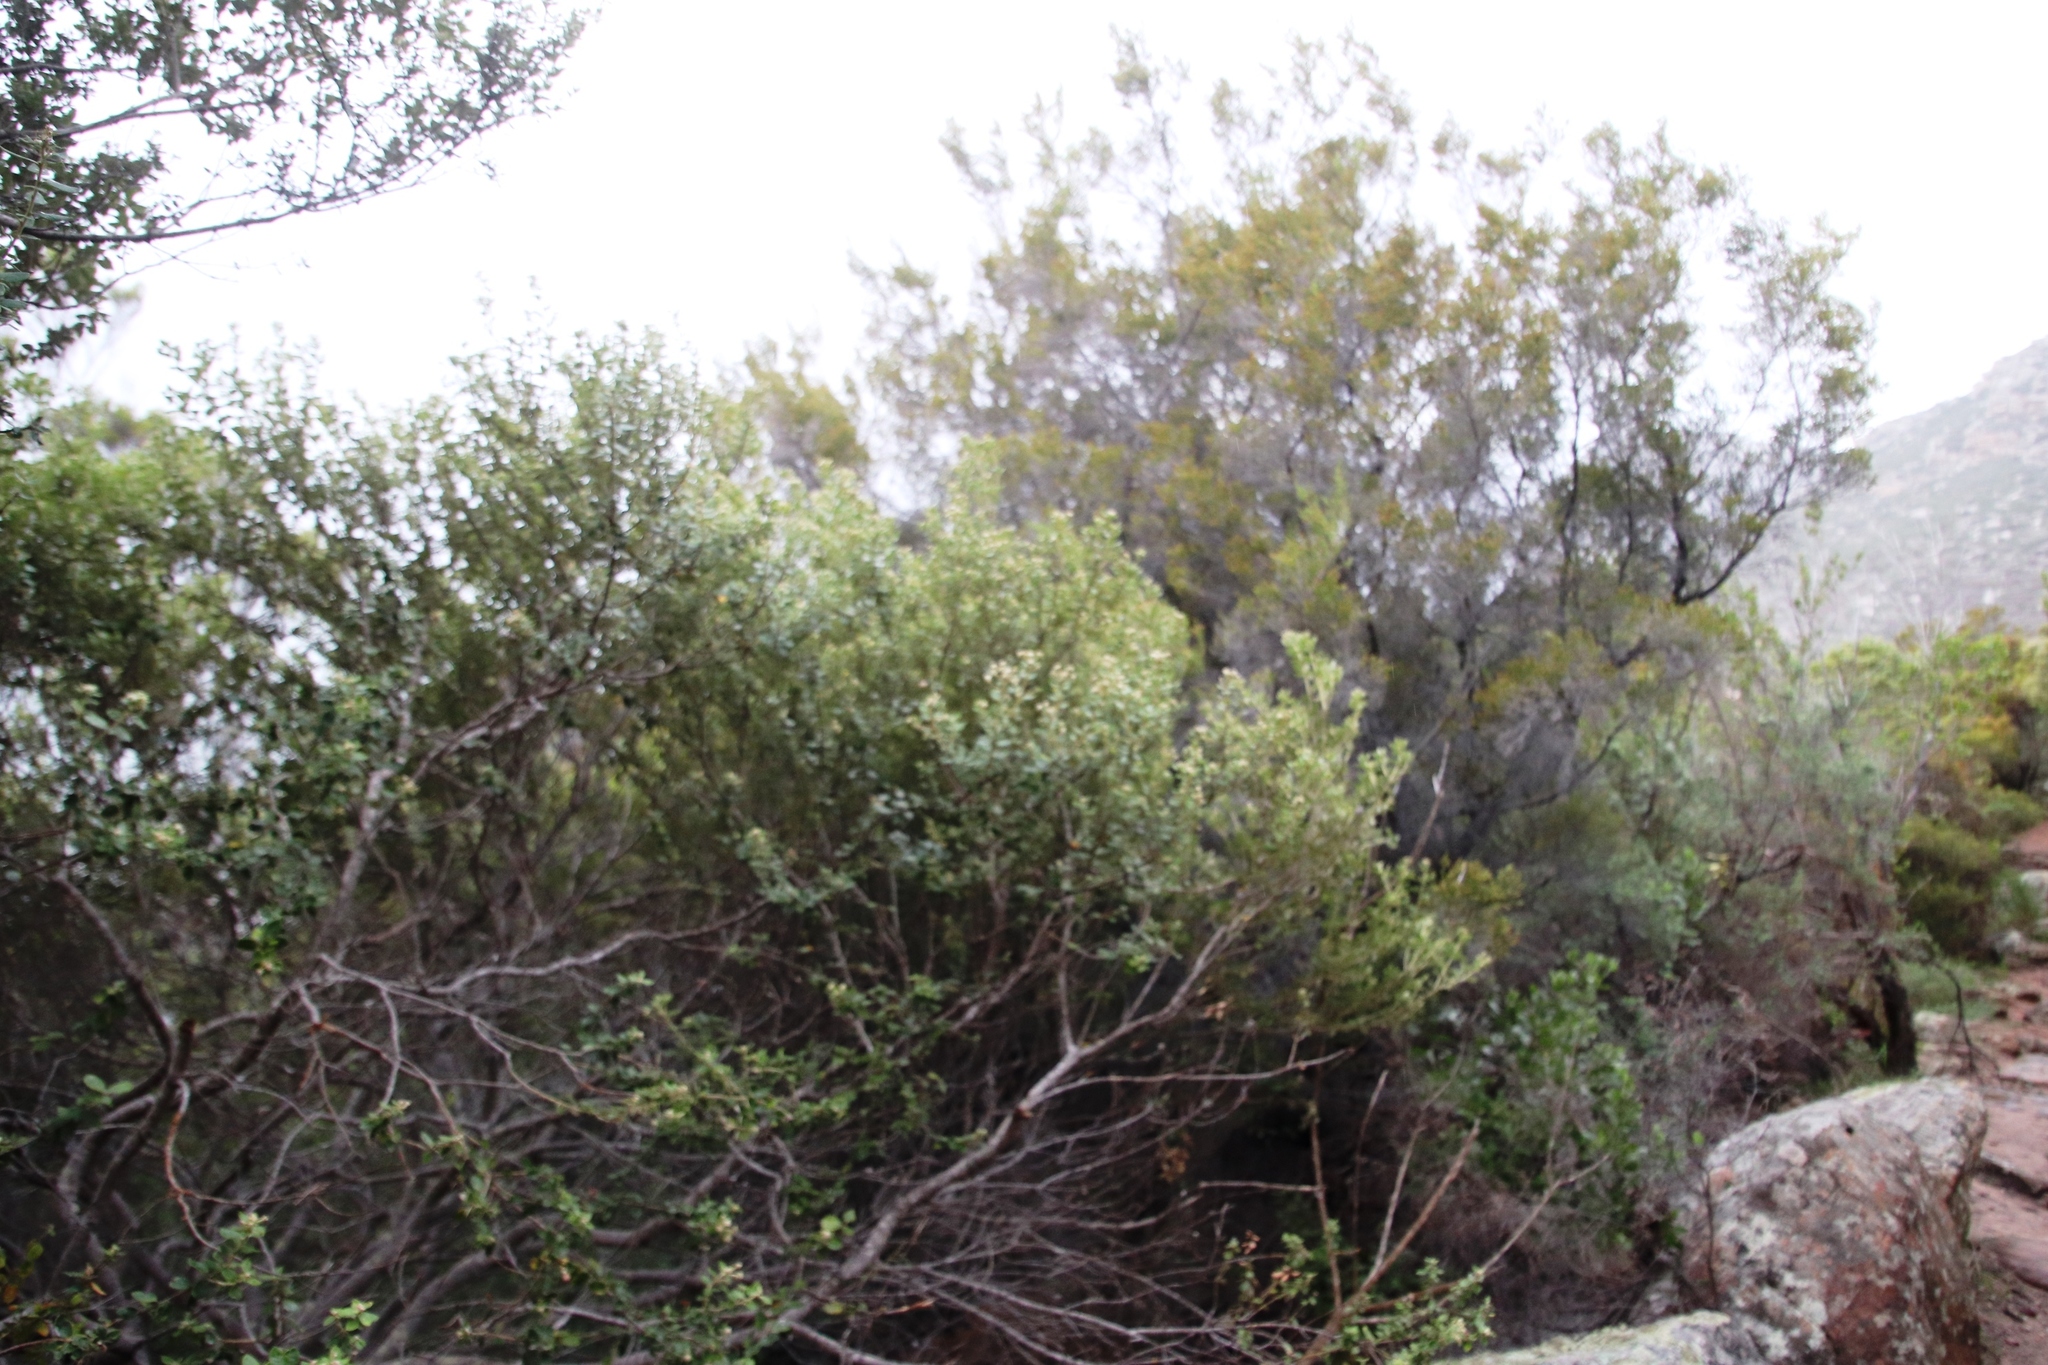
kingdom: Plantae
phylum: Tracheophyta
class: Magnoliopsida
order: Rosales
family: Rhamnaceae
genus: Phylica
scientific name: Phylica buxifolia
